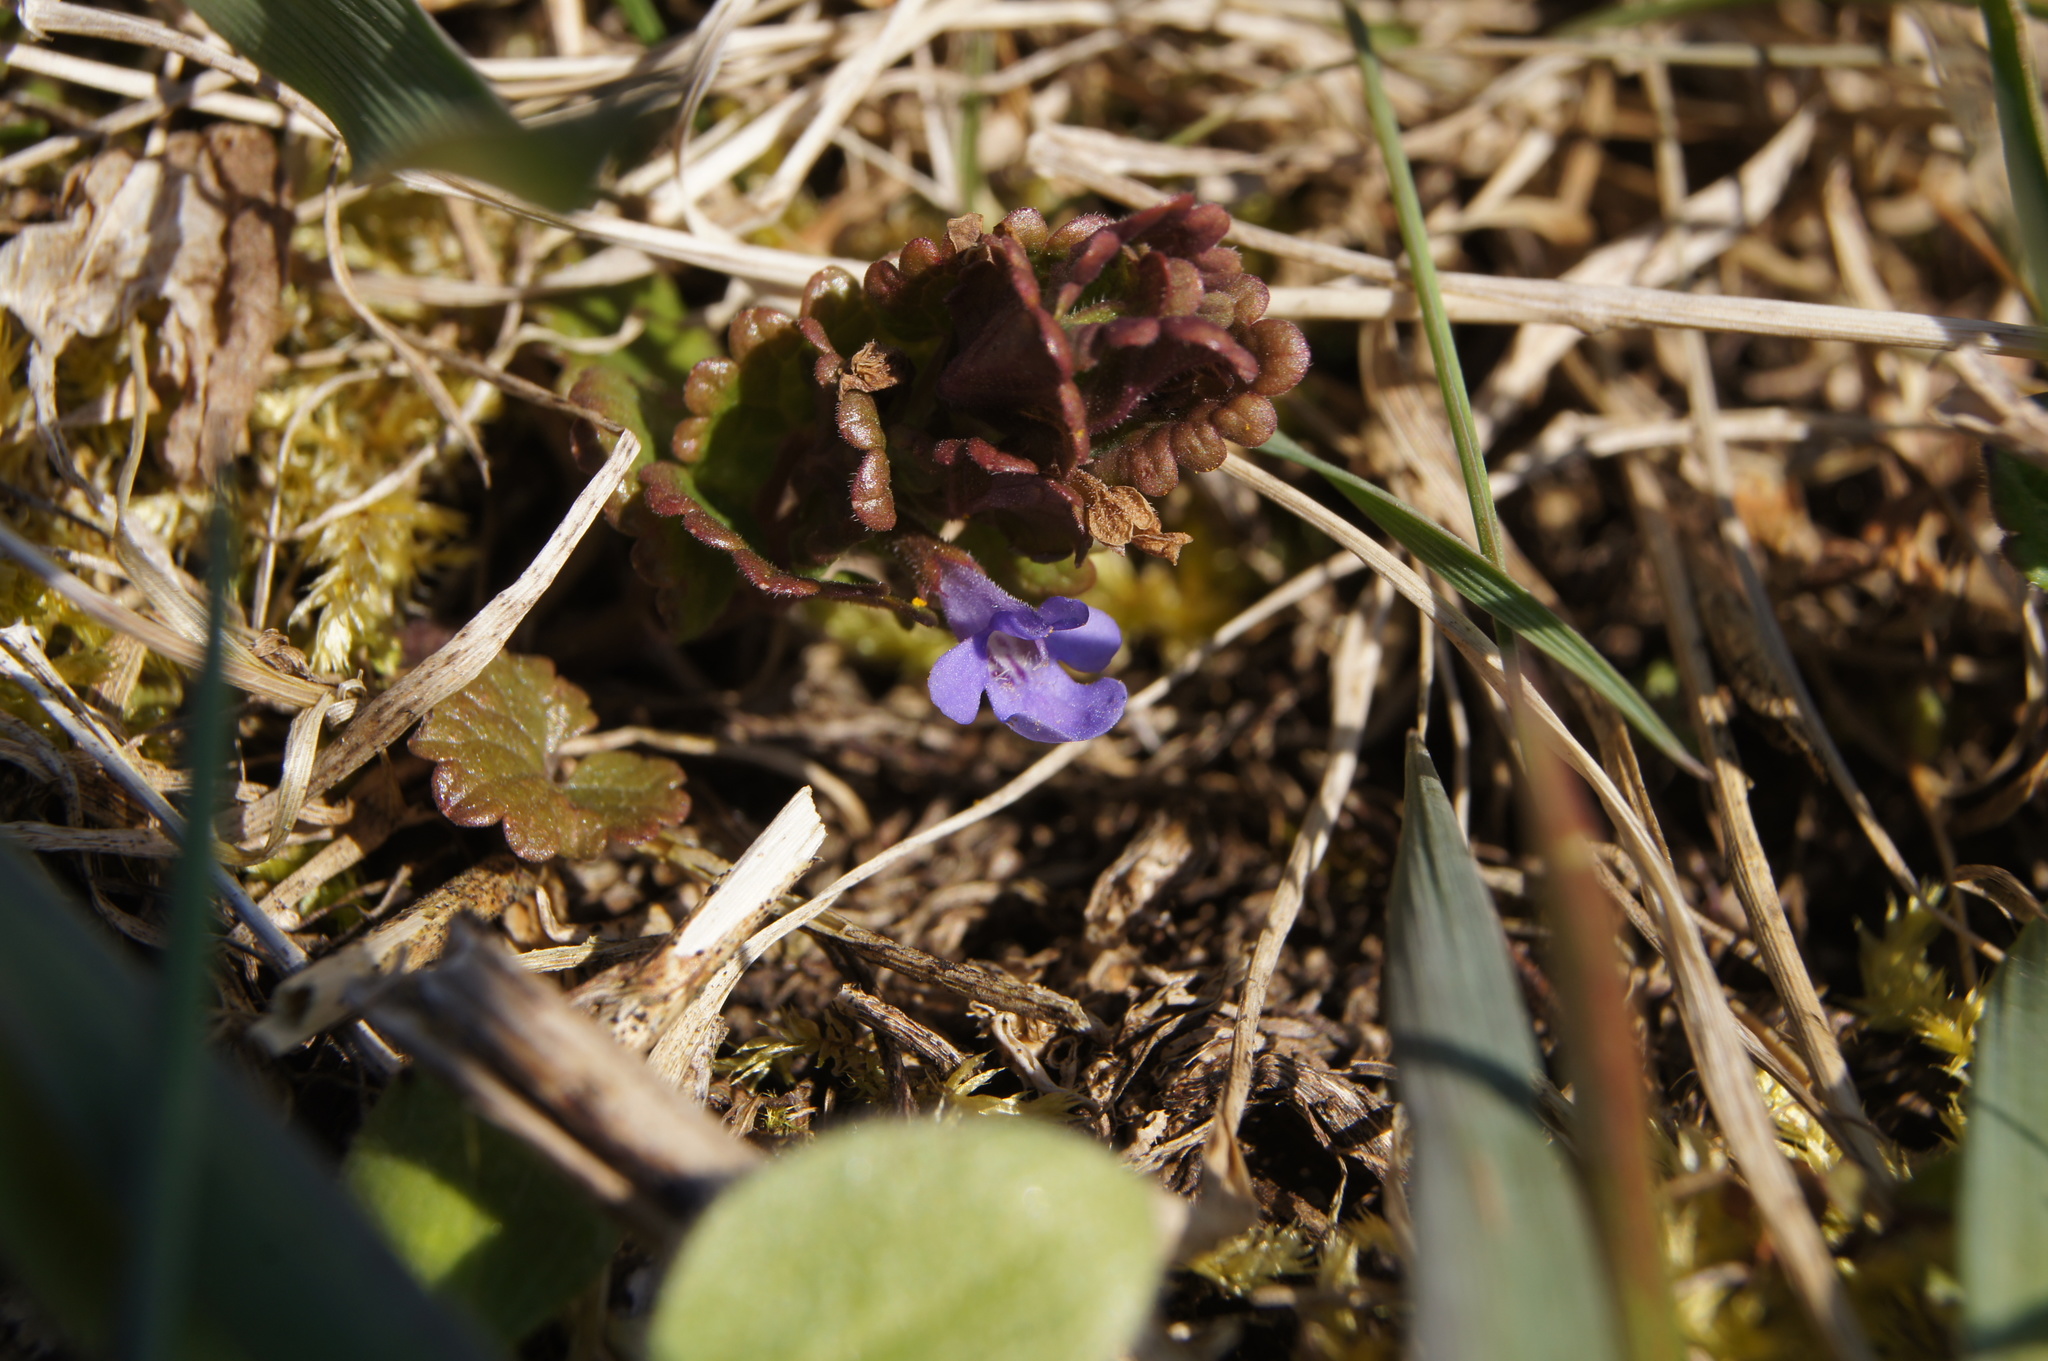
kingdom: Plantae
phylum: Tracheophyta
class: Magnoliopsida
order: Lamiales
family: Lamiaceae
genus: Glechoma
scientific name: Glechoma hederacea
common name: Ground ivy
